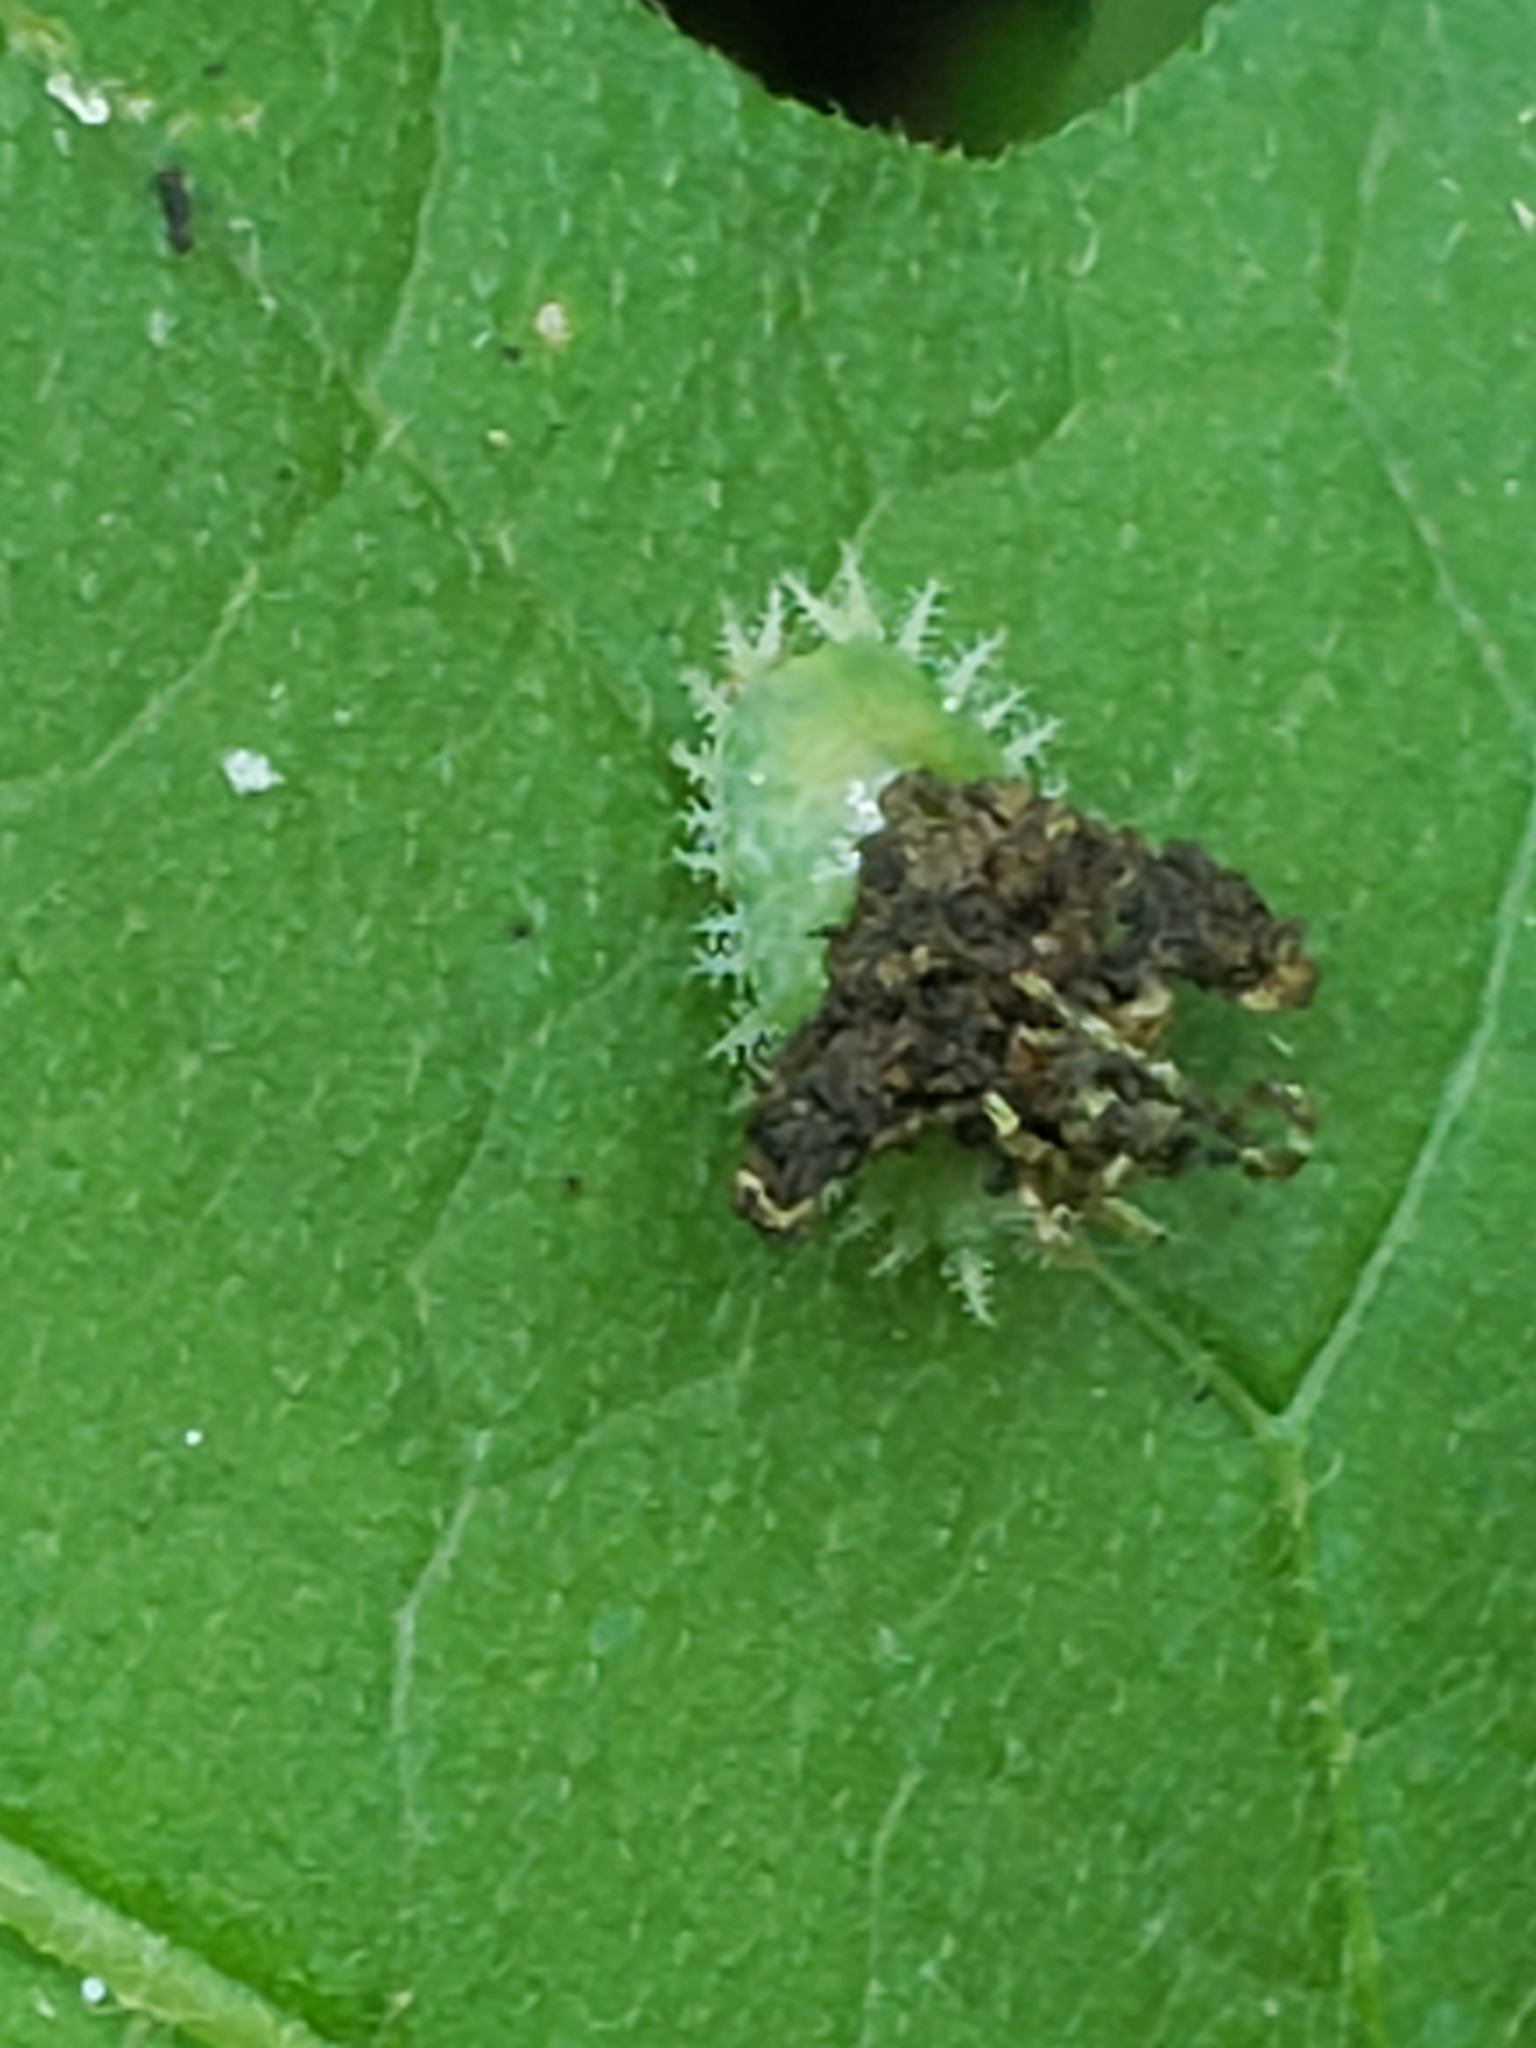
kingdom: Animalia
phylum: Arthropoda
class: Insecta
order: Coleoptera
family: Chrysomelidae
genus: Helocassis
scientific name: Helocassis clavata
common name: Clavate tortoise beetle
